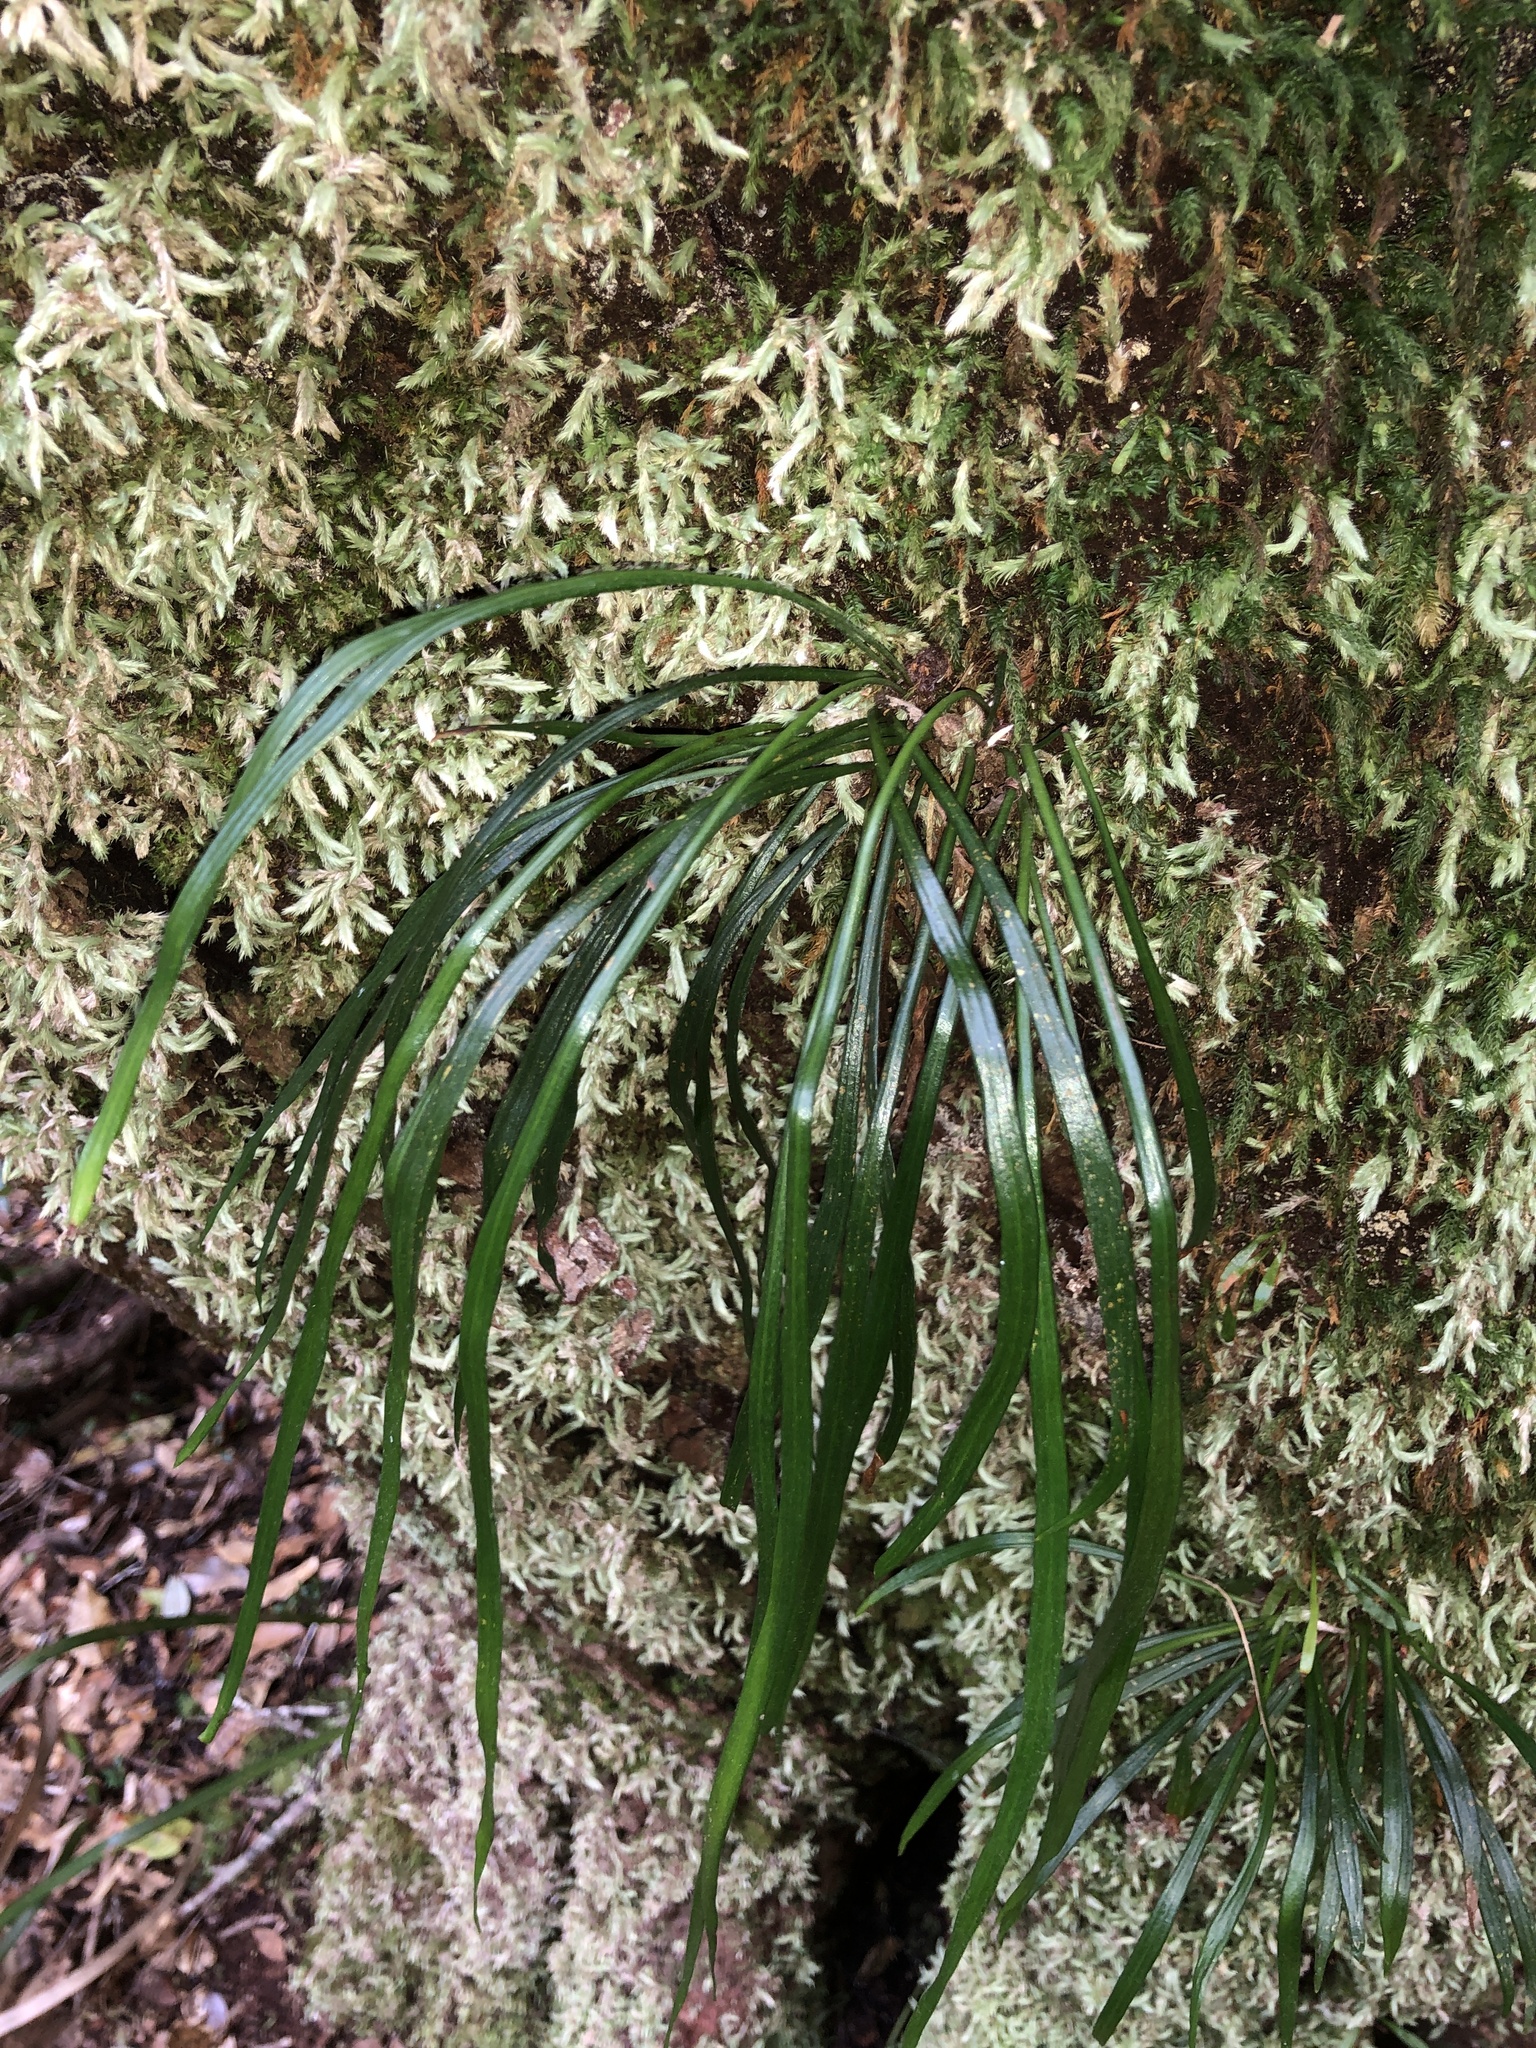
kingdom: Plantae
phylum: Tracheophyta
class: Polypodiopsida
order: Polypodiales
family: Pteridaceae
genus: Haplopteris
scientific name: Haplopteris ensiformis
